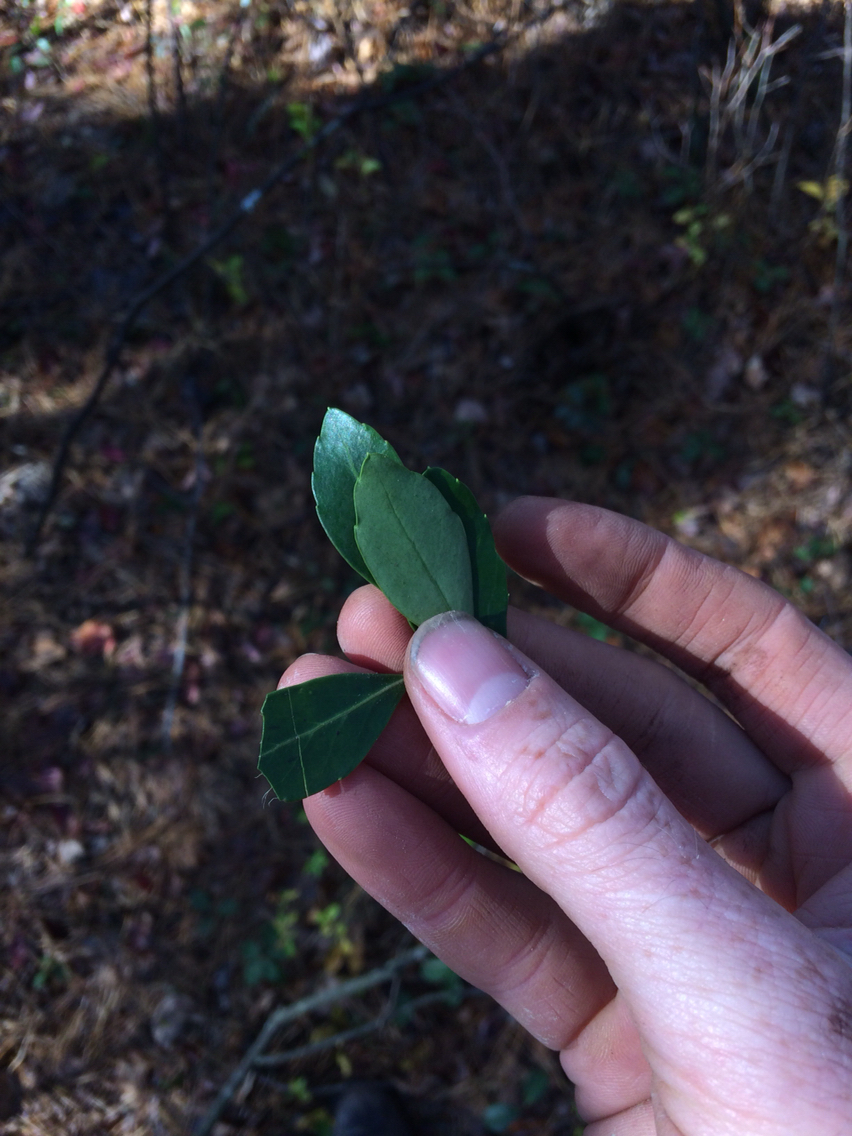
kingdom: Plantae
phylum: Tracheophyta
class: Magnoliopsida
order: Aquifoliales
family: Aquifoliaceae
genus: Ilex
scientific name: Ilex glabra
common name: Bitter gallberry
